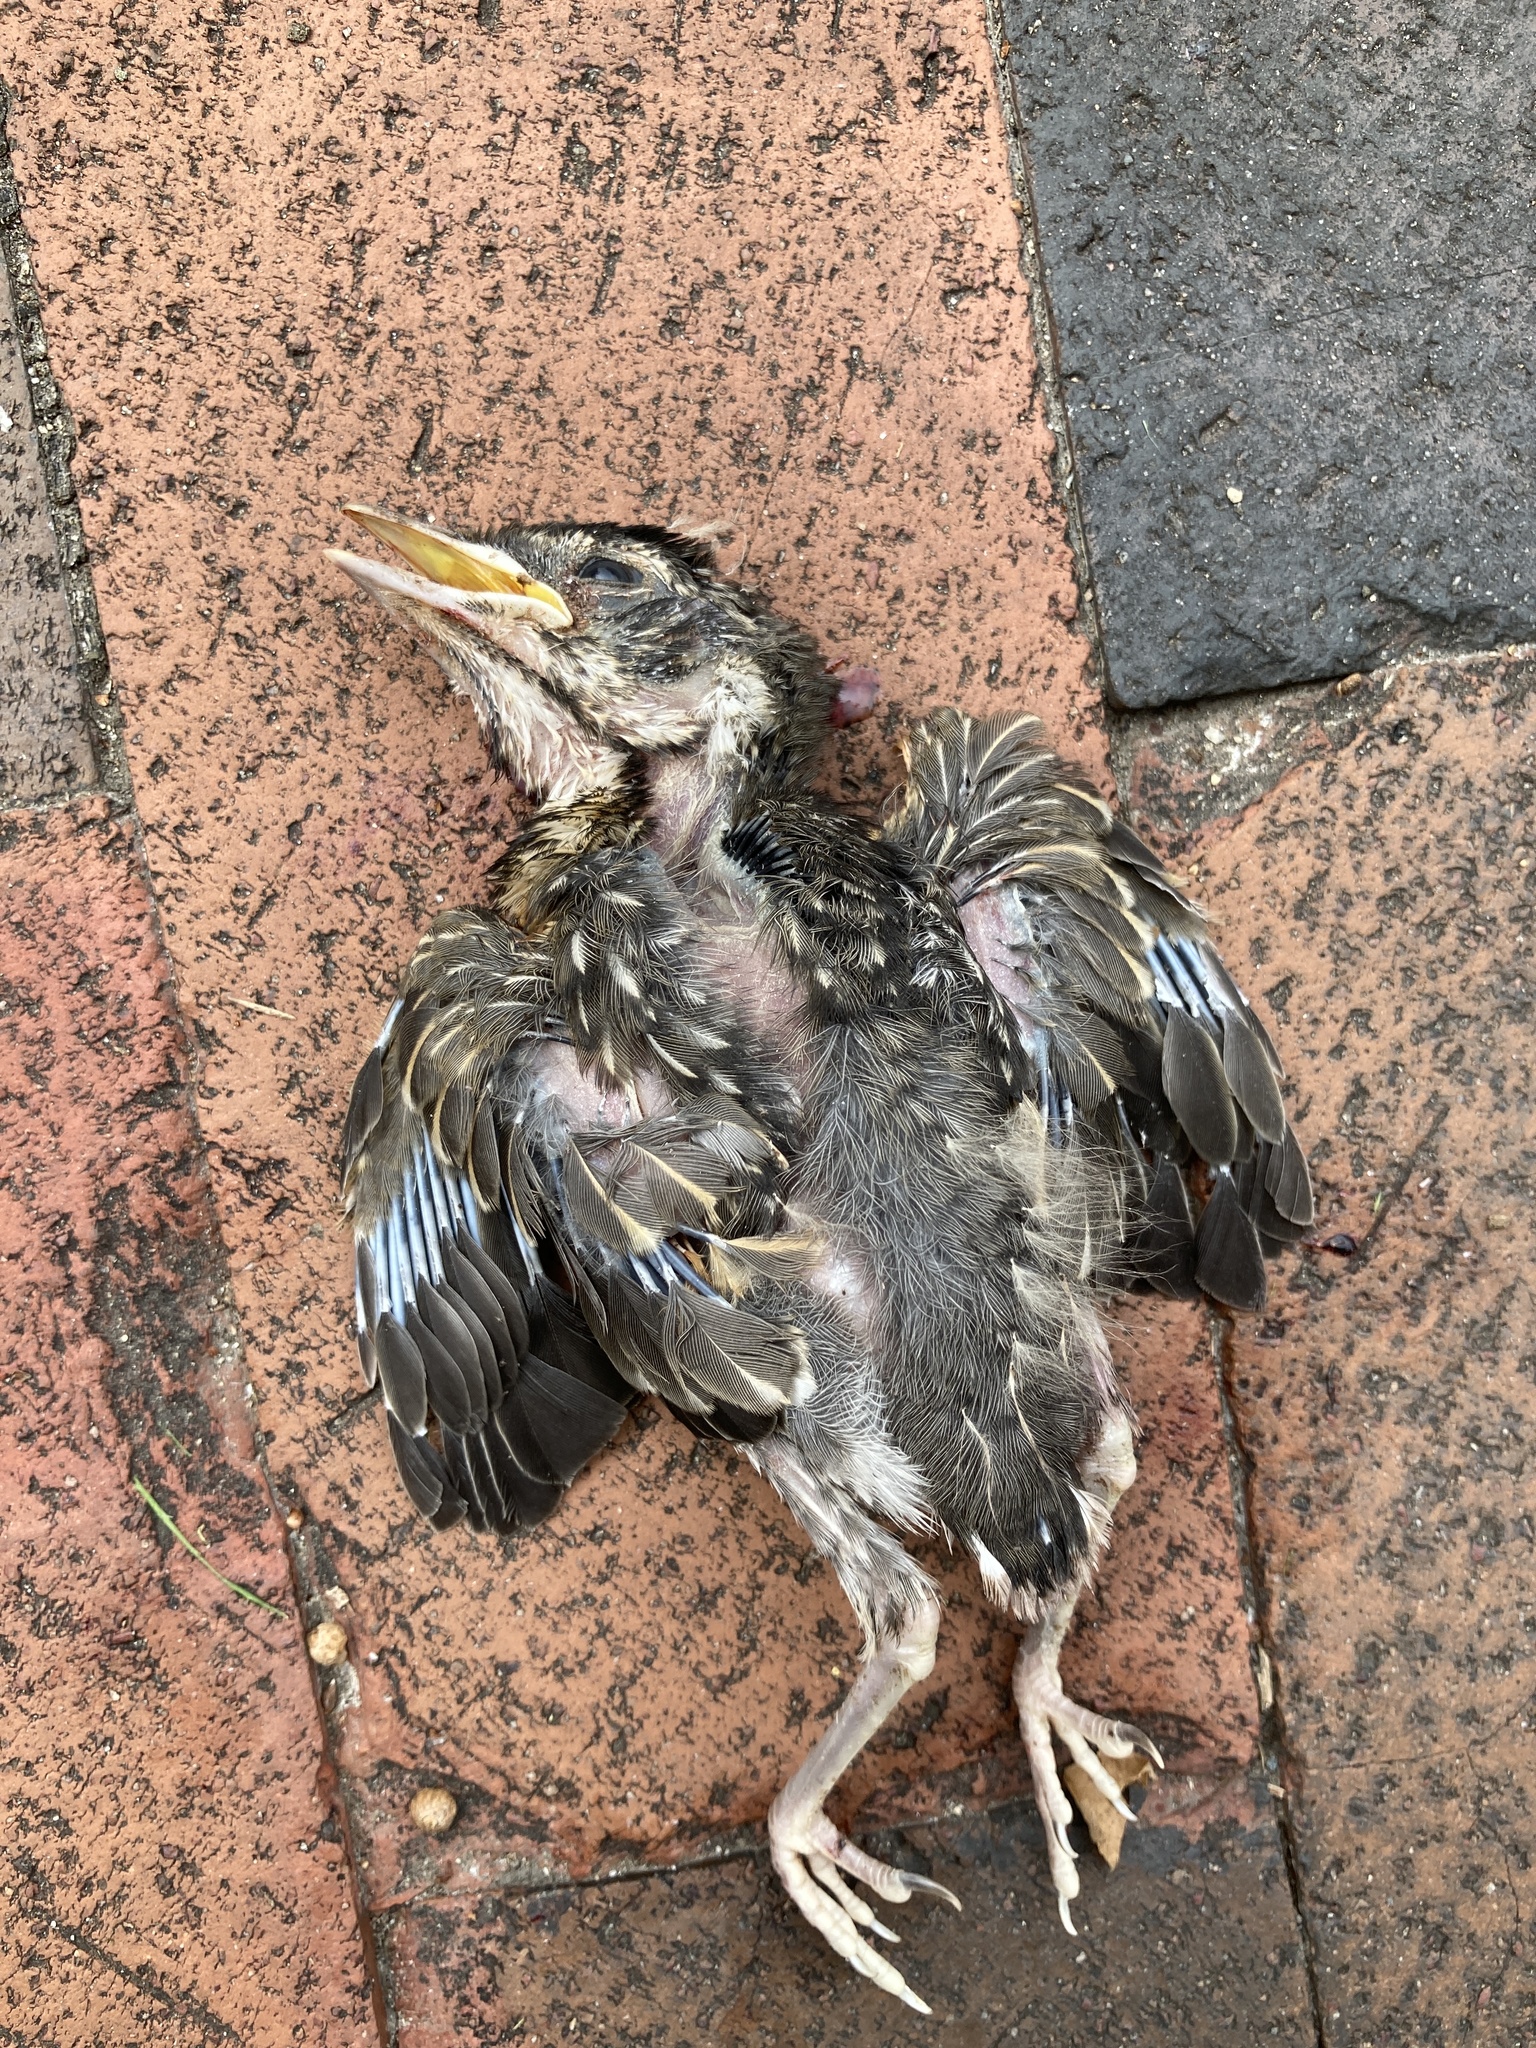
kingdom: Animalia
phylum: Chordata
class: Aves
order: Passeriformes
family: Turdidae
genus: Turdus
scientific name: Turdus migratorius
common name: American robin
